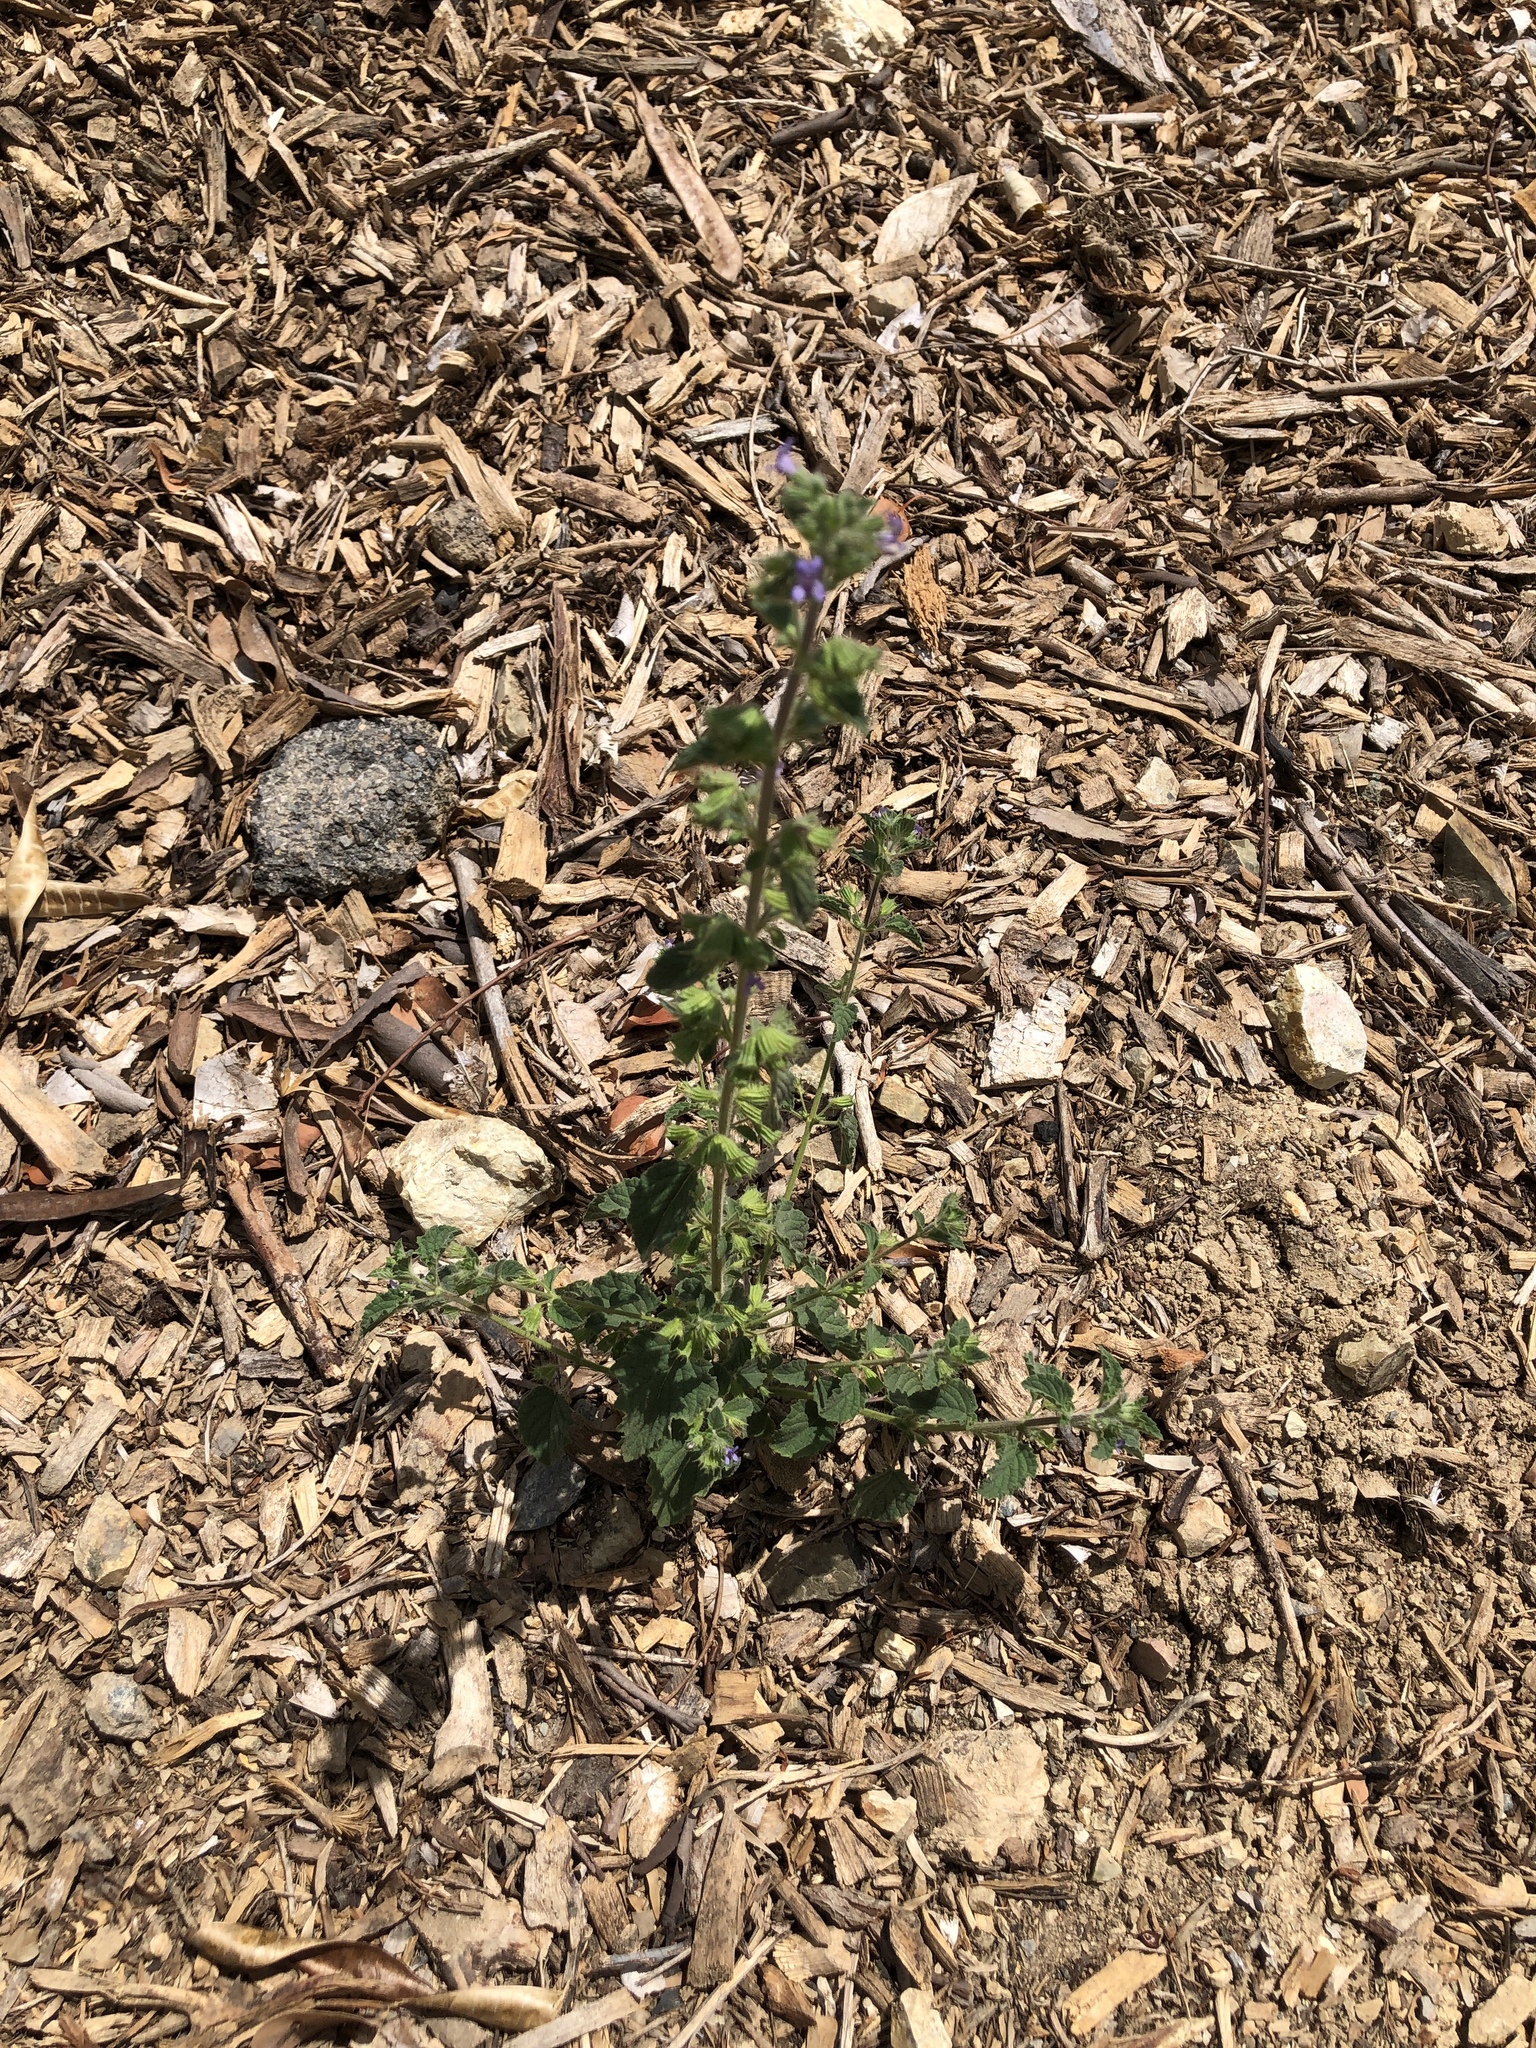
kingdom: Plantae
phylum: Tracheophyta
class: Magnoliopsida
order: Lamiales
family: Lamiaceae
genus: Mesosphaerum
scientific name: Mesosphaerum suaveolens
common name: Pignut
